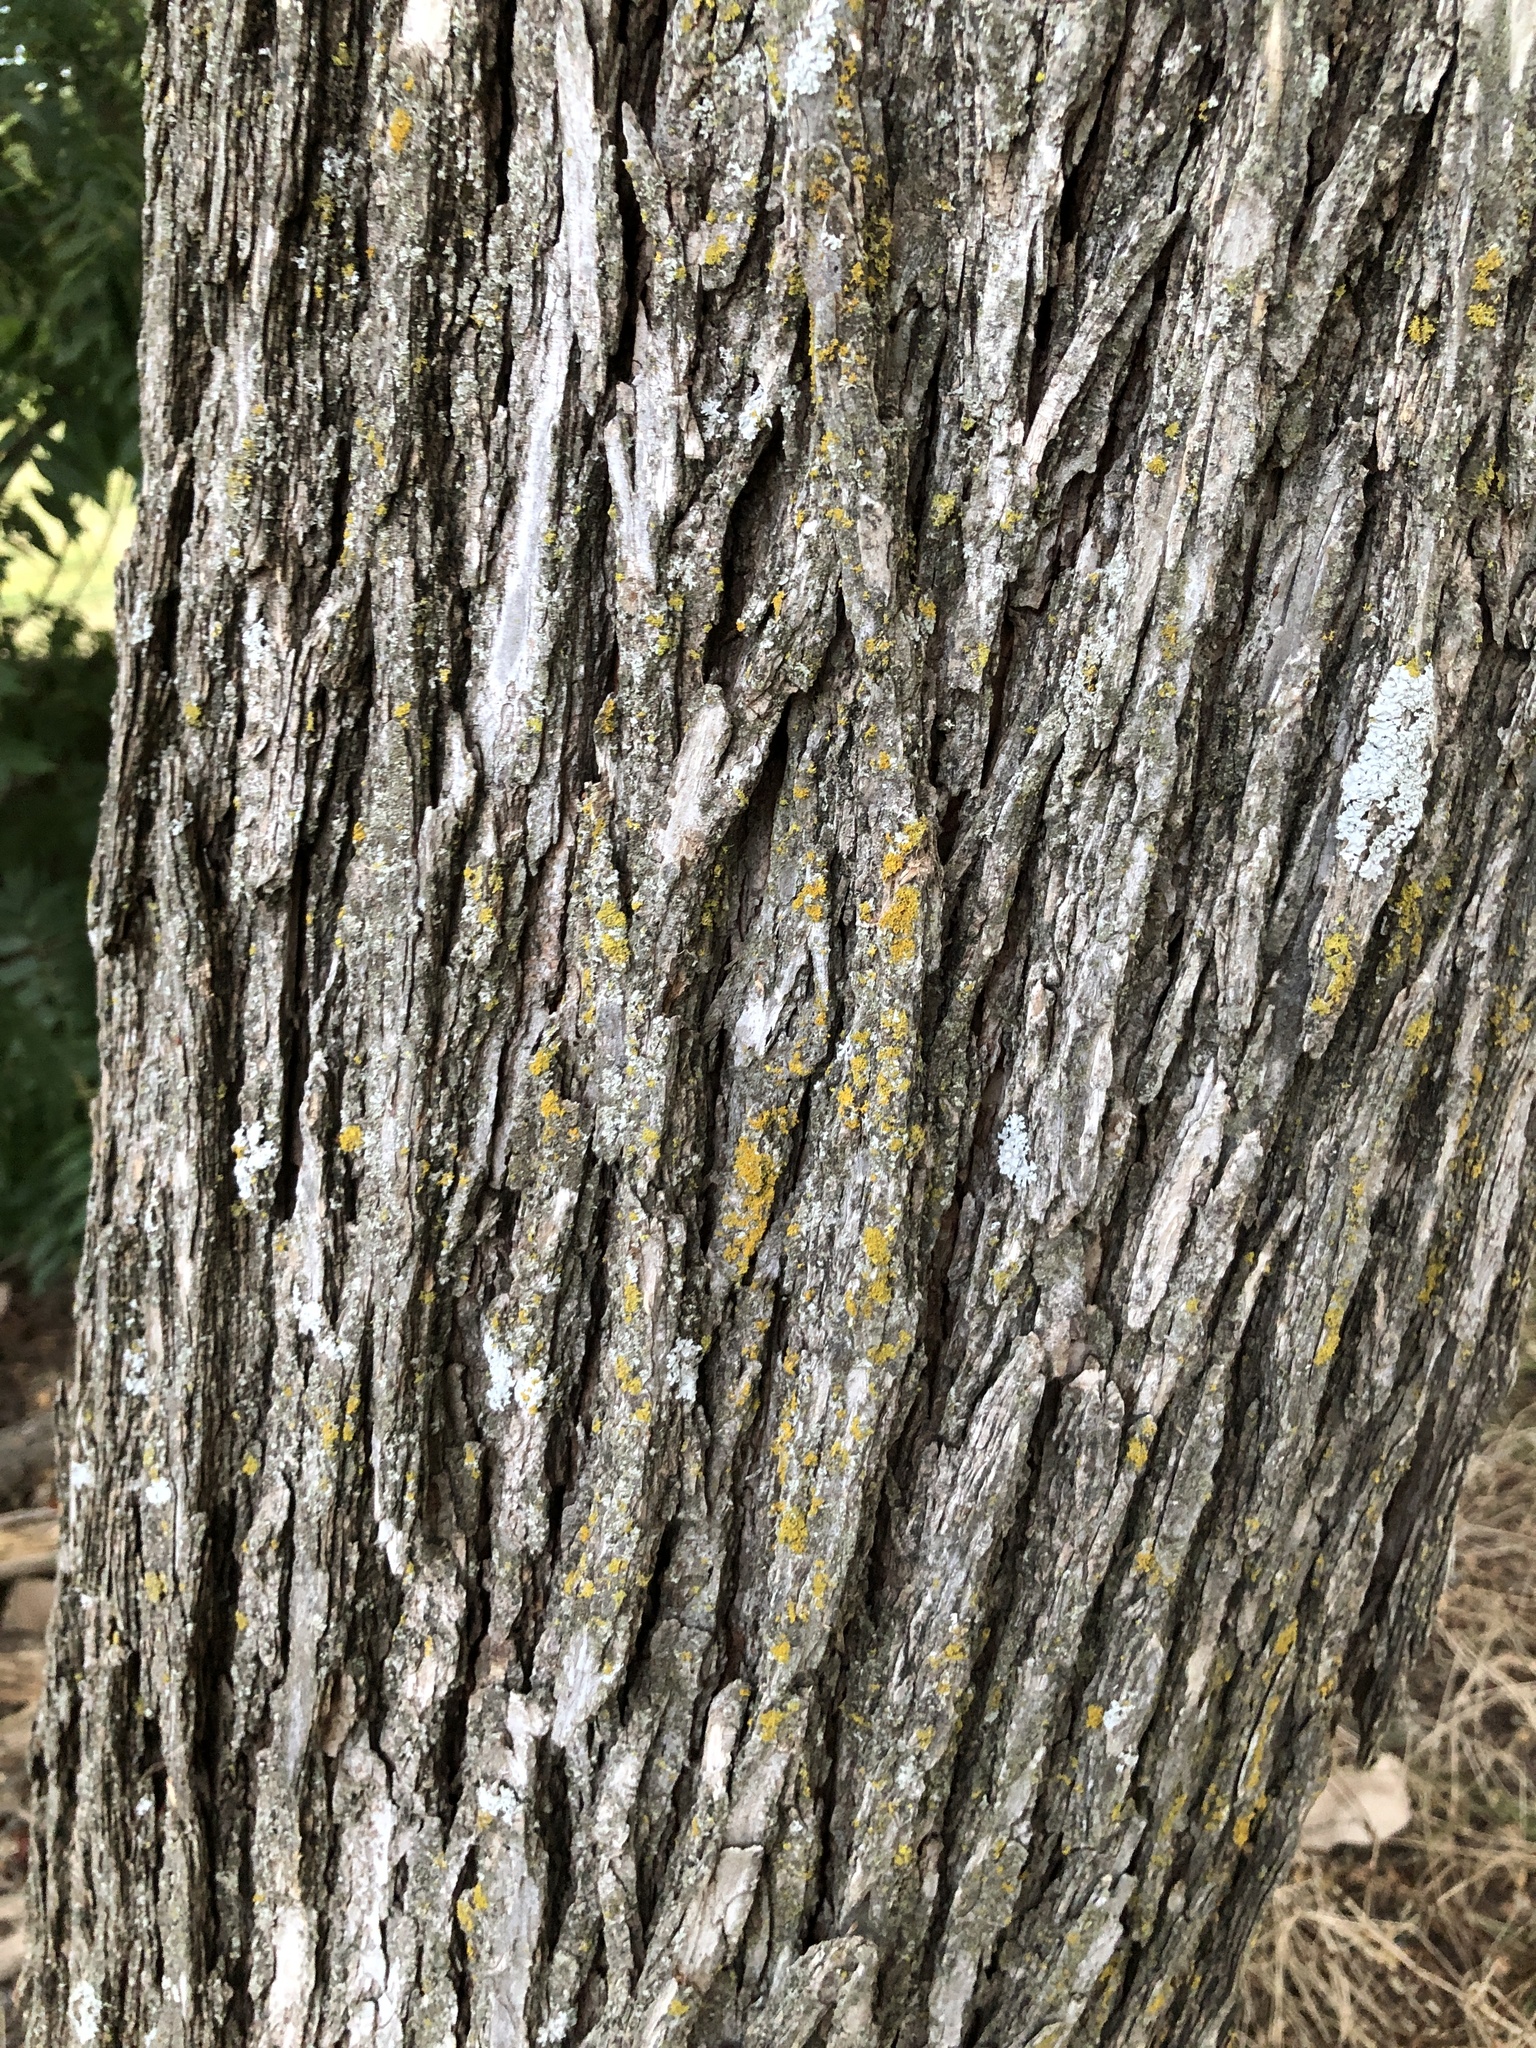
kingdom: Plantae
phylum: Tracheophyta
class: Magnoliopsida
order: Rosales
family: Ulmaceae
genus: Ulmus
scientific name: Ulmus crassifolia
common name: Basket elm
